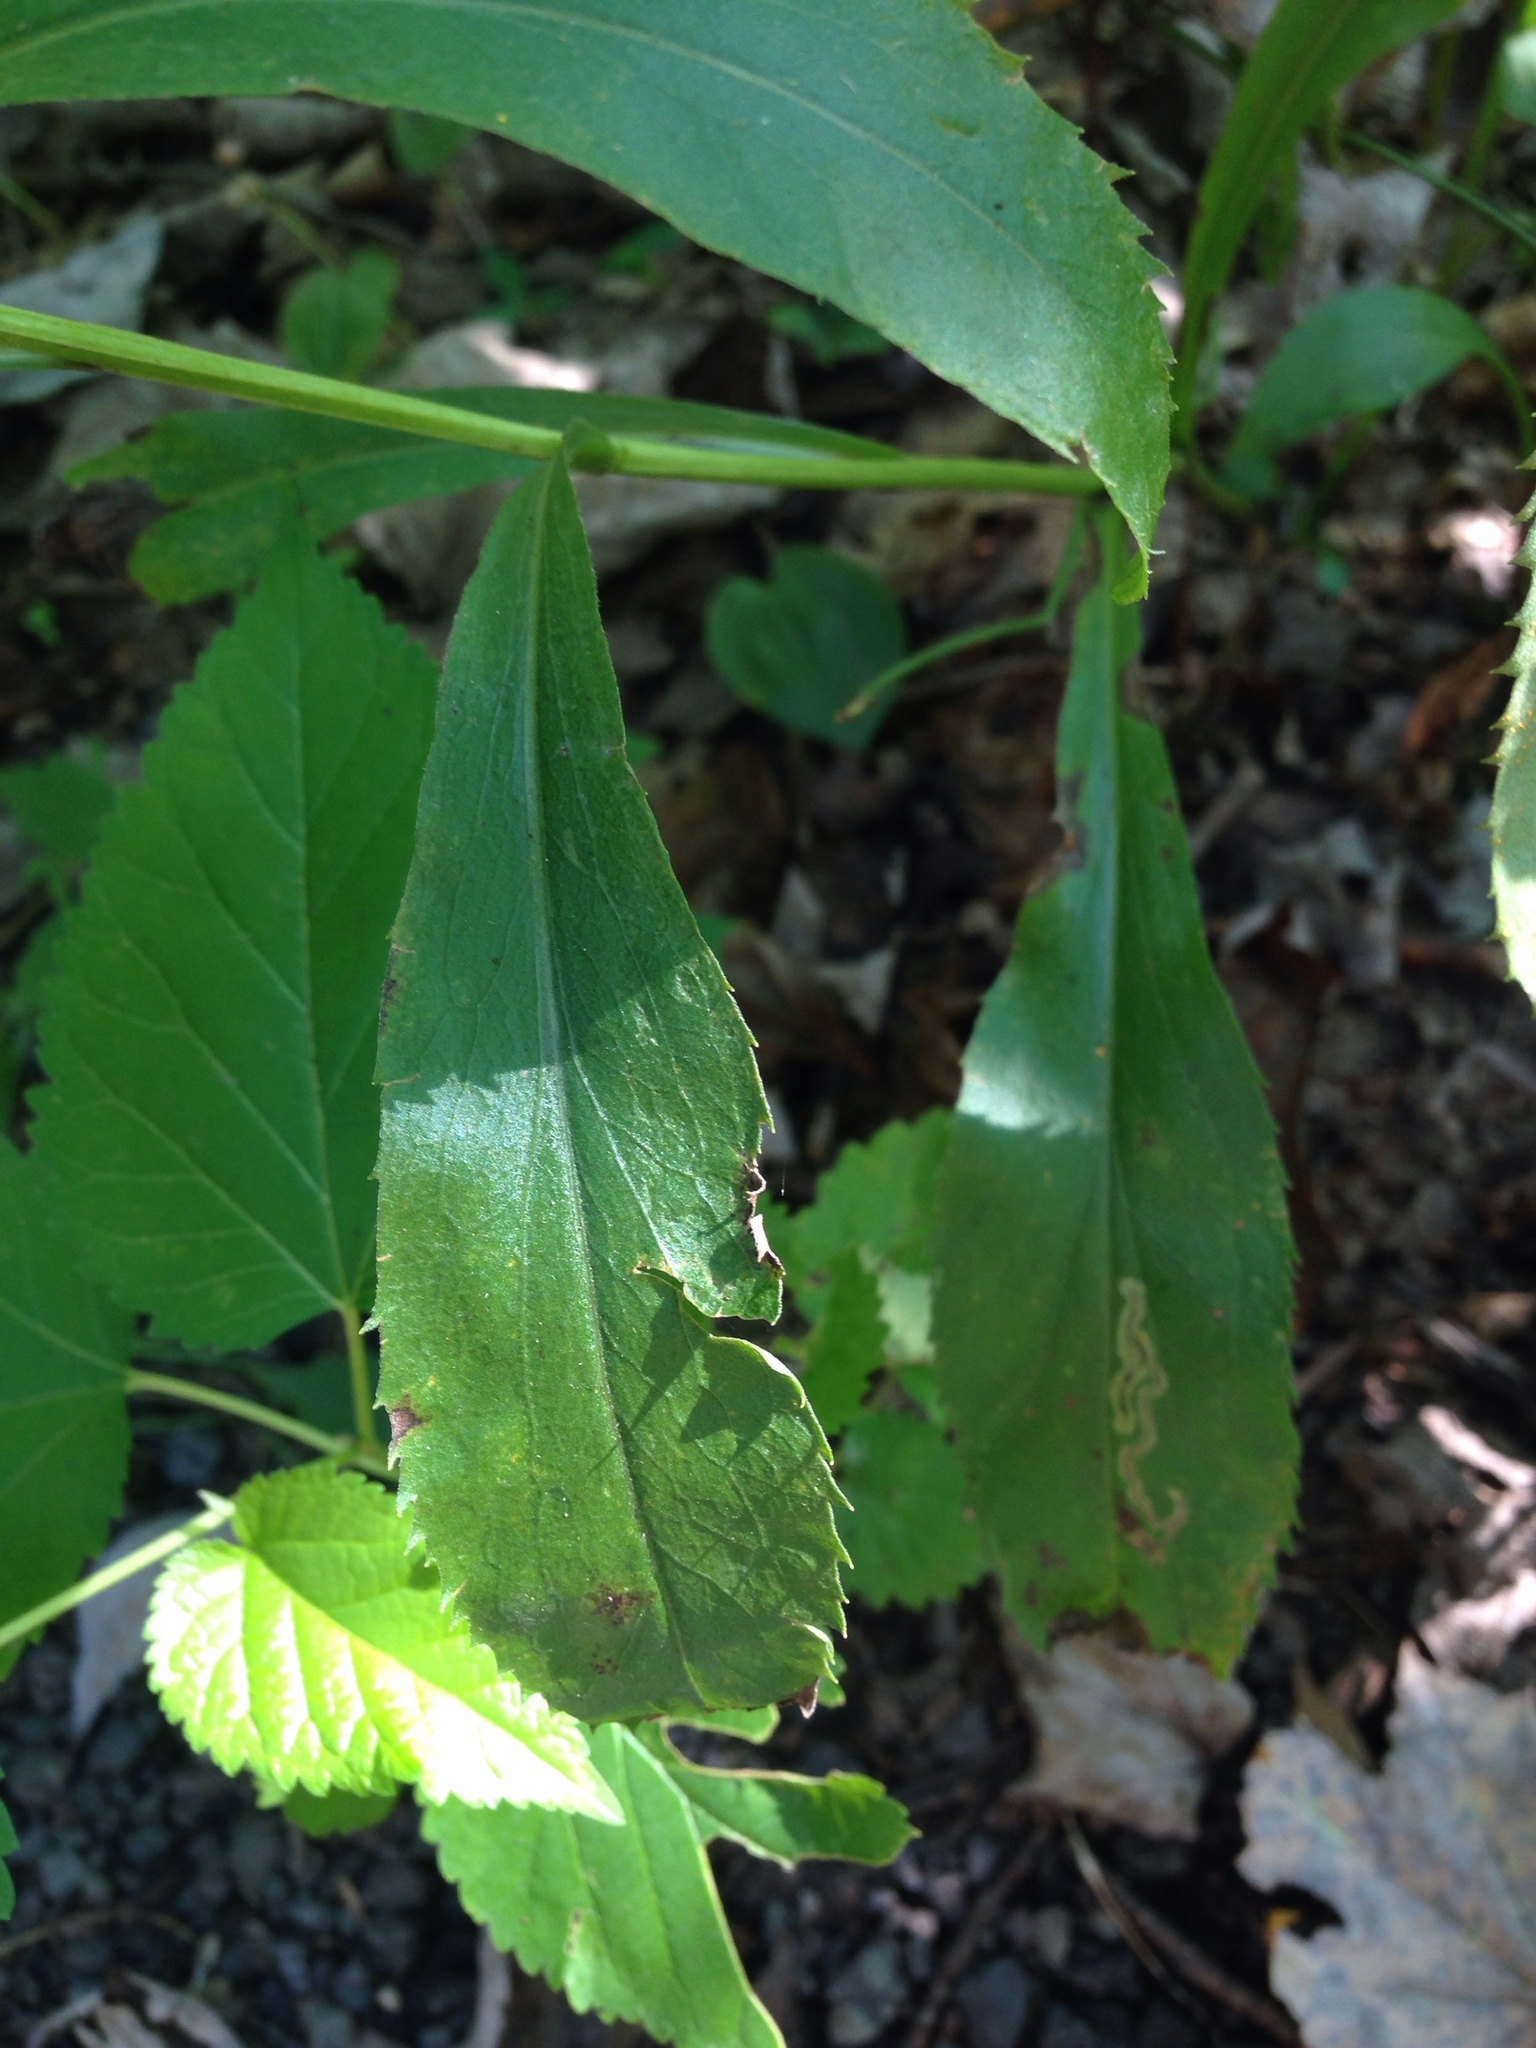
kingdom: Plantae
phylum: Tracheophyta
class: Magnoliopsida
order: Asterales
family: Asteraceae
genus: Solidago
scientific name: Solidago juncea
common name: Early goldenrod
